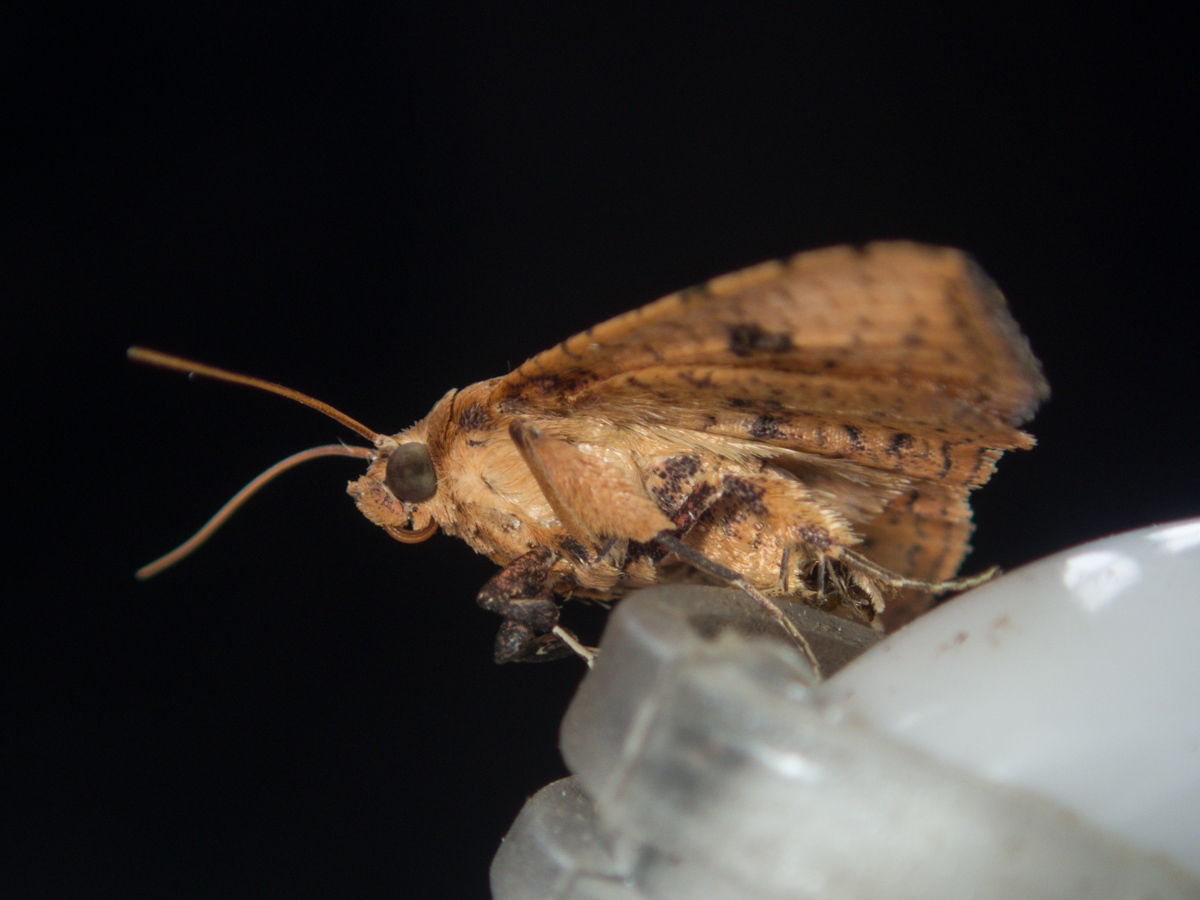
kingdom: Animalia
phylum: Arthropoda
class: Insecta
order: Lepidoptera
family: Thyrididae
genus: Striglina
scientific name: Striglina duplicifimbria
